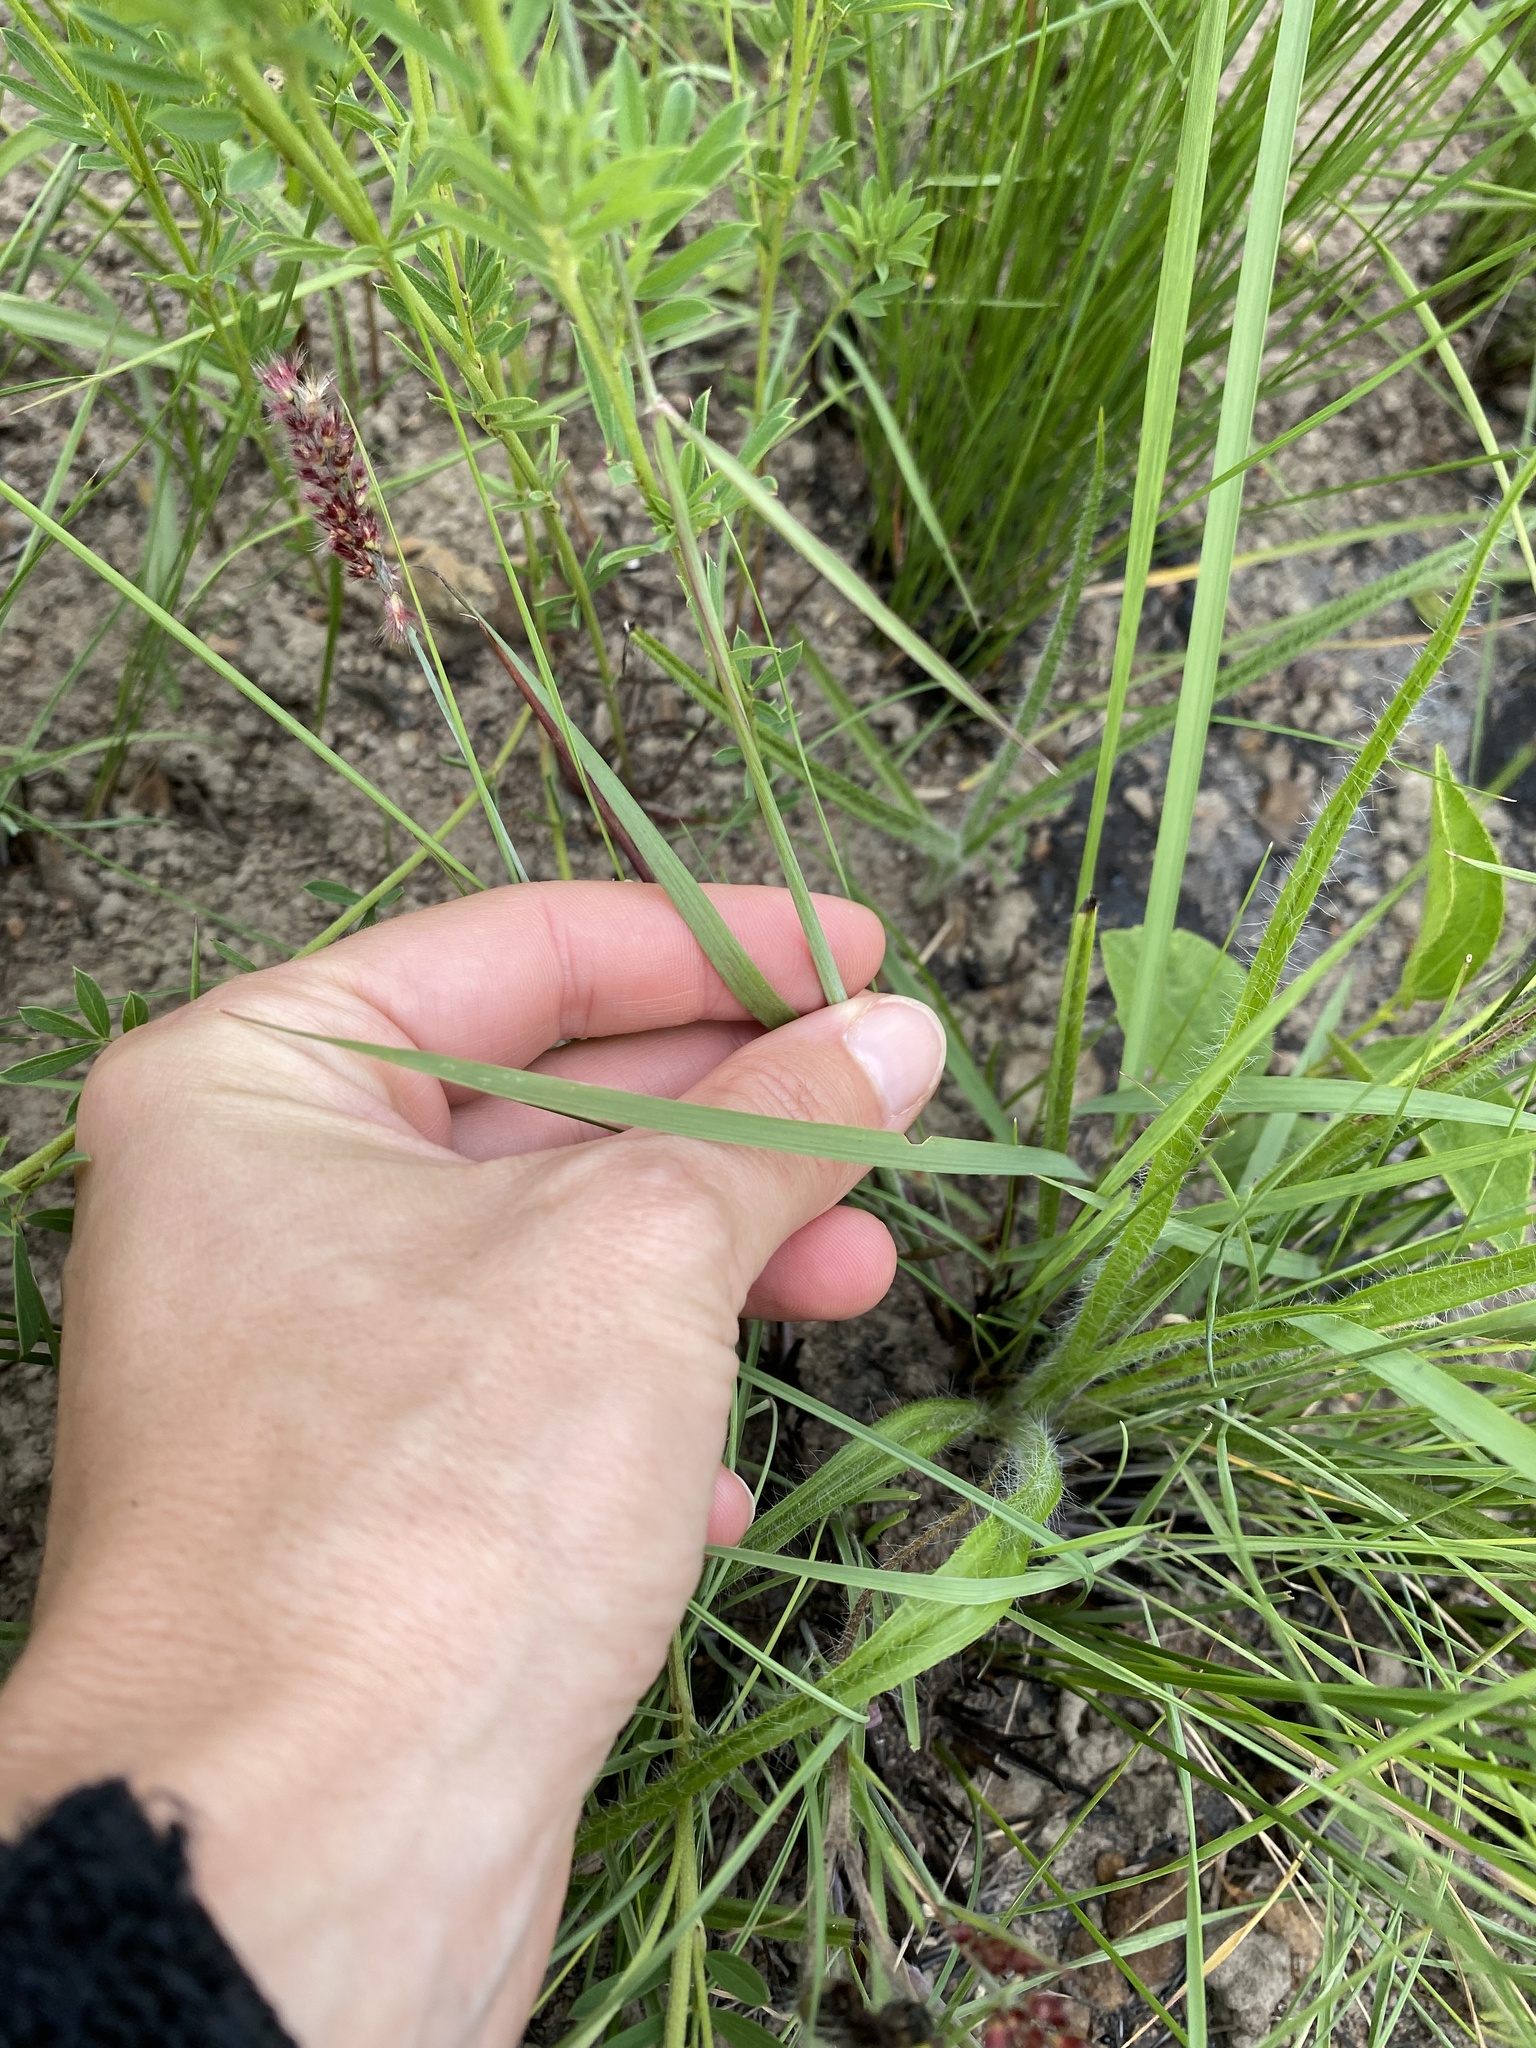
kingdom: Plantae
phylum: Tracheophyta
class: Liliopsida
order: Poales
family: Poaceae
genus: Melinis
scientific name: Melinis repens
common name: Rose natal grass
